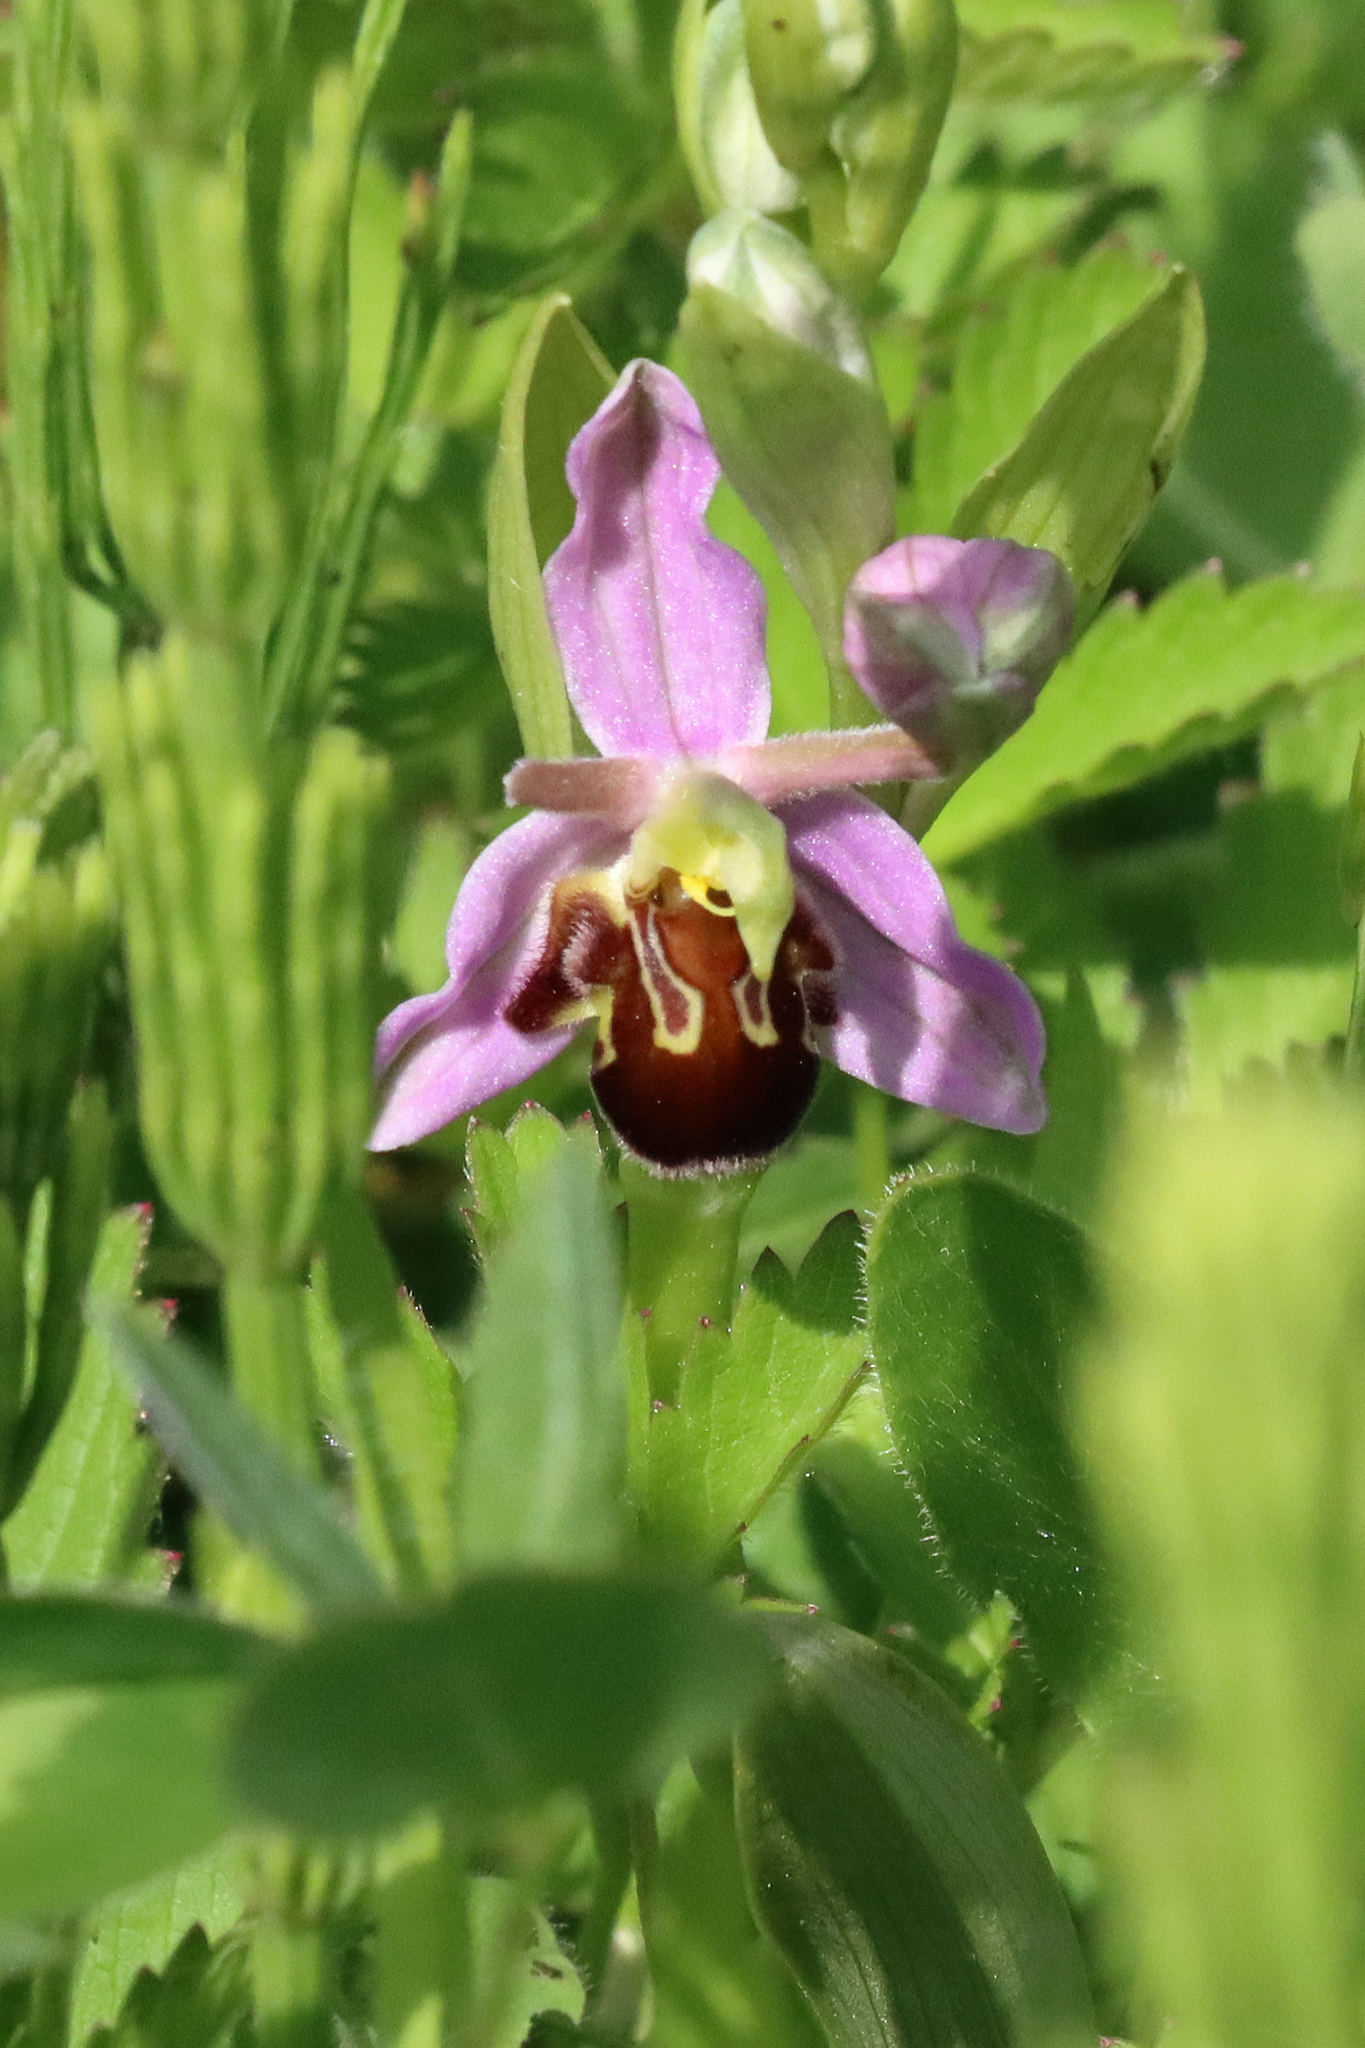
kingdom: Plantae
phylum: Tracheophyta
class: Liliopsida
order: Asparagales
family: Orchidaceae
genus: Ophrys
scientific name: Ophrys apifera
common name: Bee orchid
